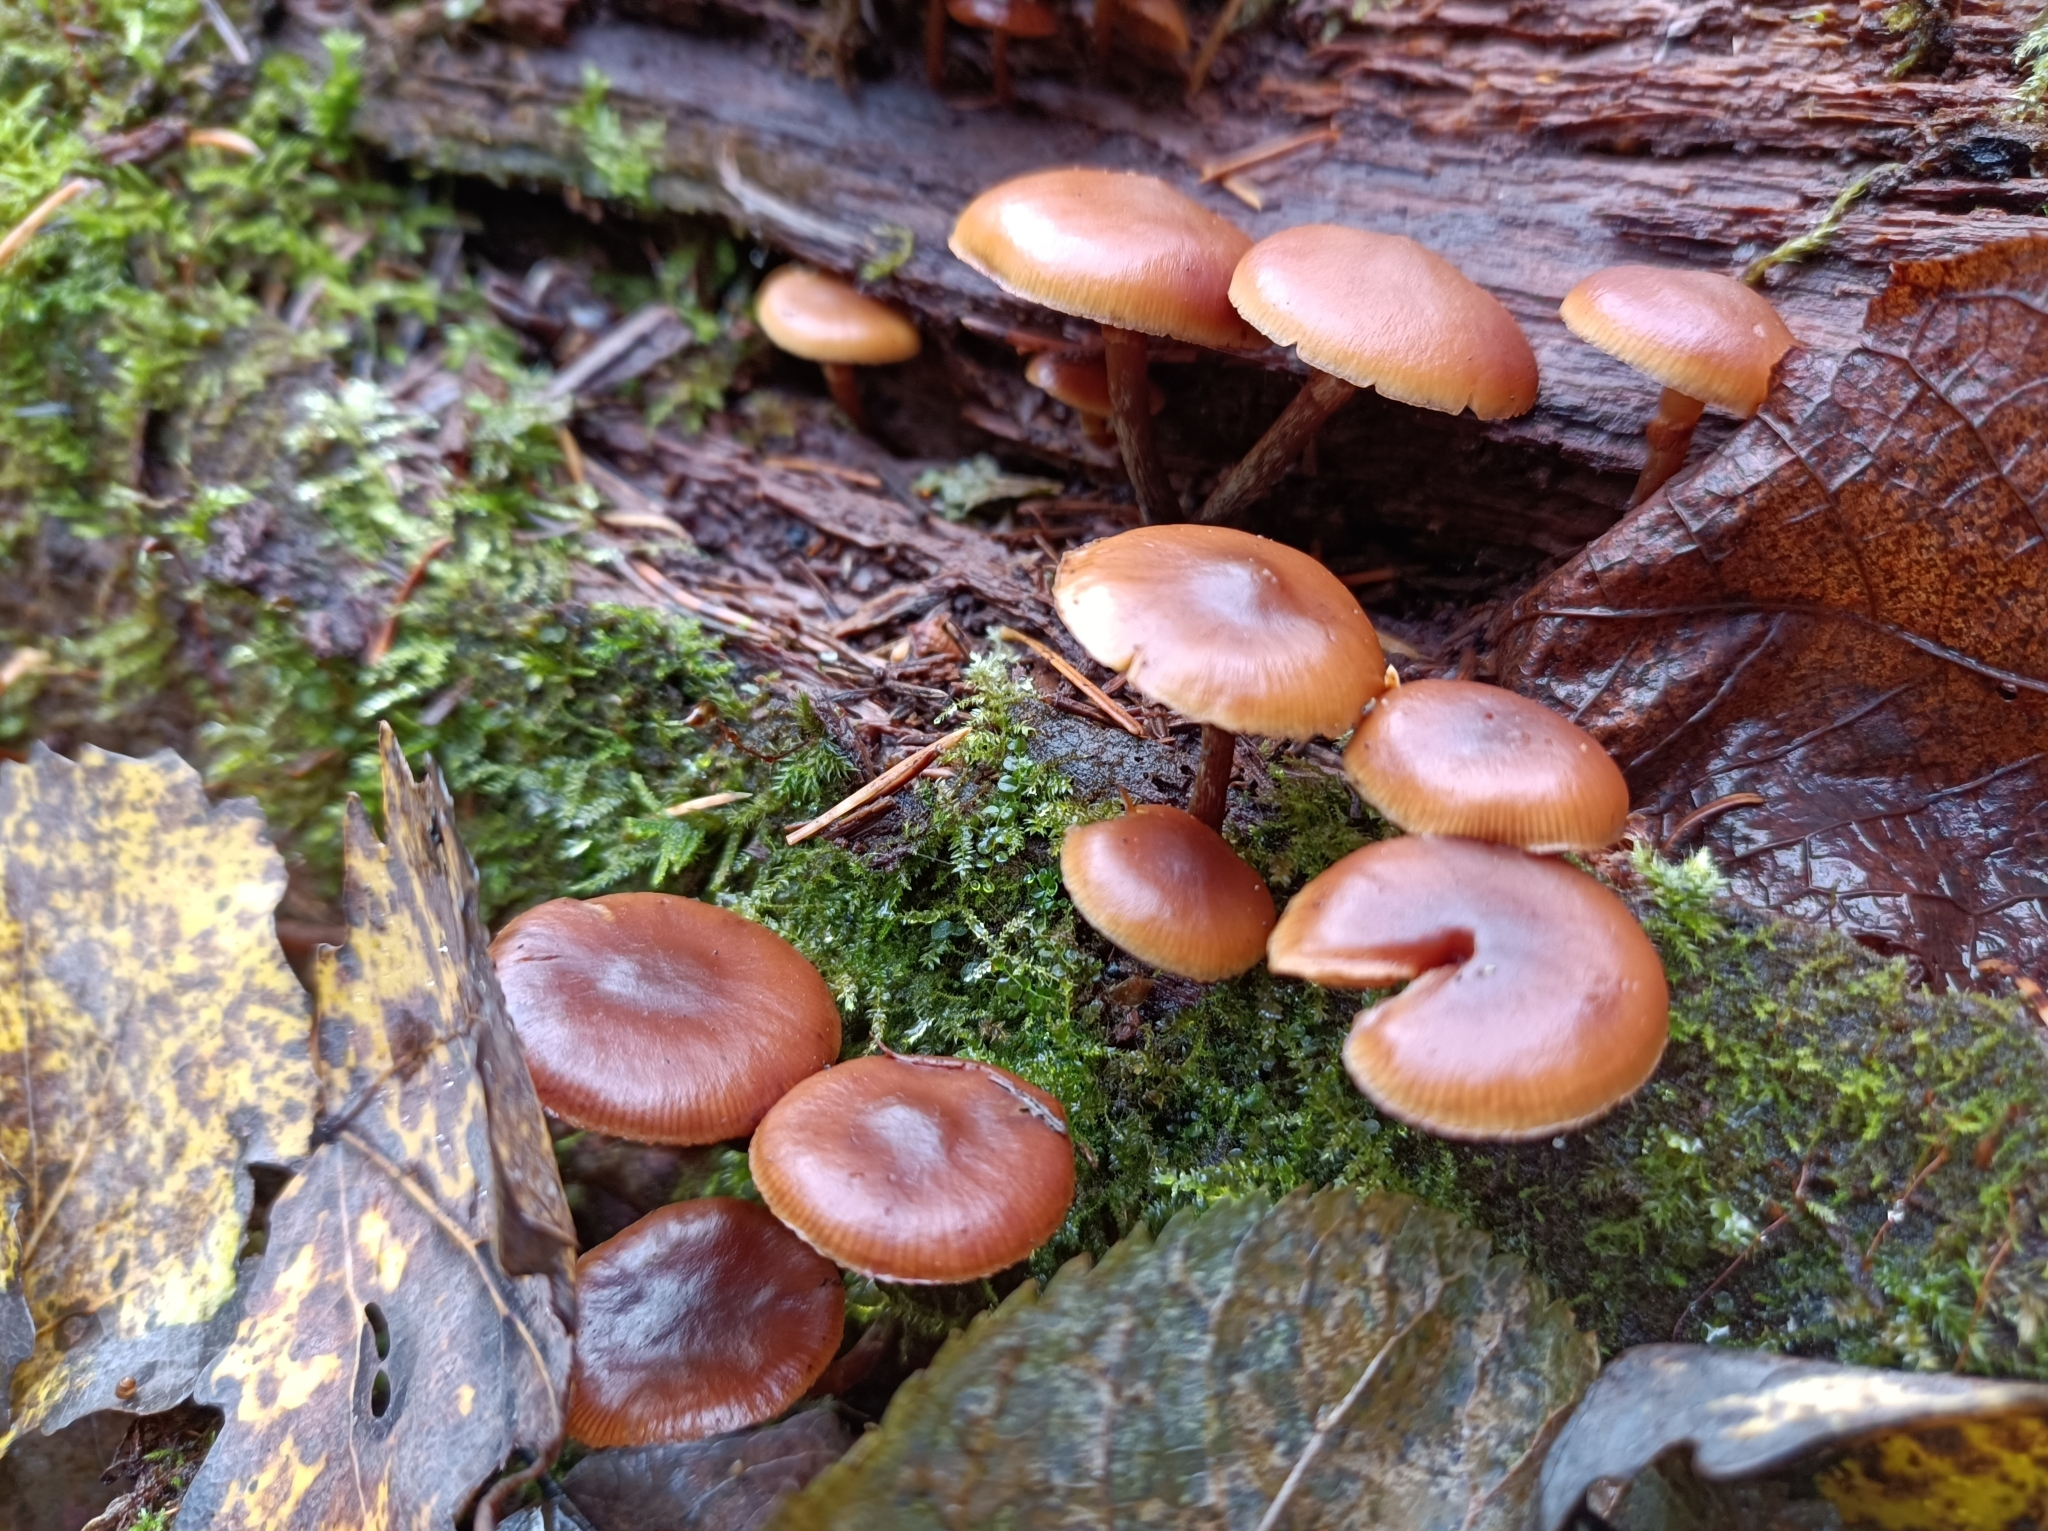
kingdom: Fungi
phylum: Basidiomycota
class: Agaricomycetes
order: Agaricales
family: Hymenogastraceae
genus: Galerina
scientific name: Galerina marginata
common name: Funeral bell
